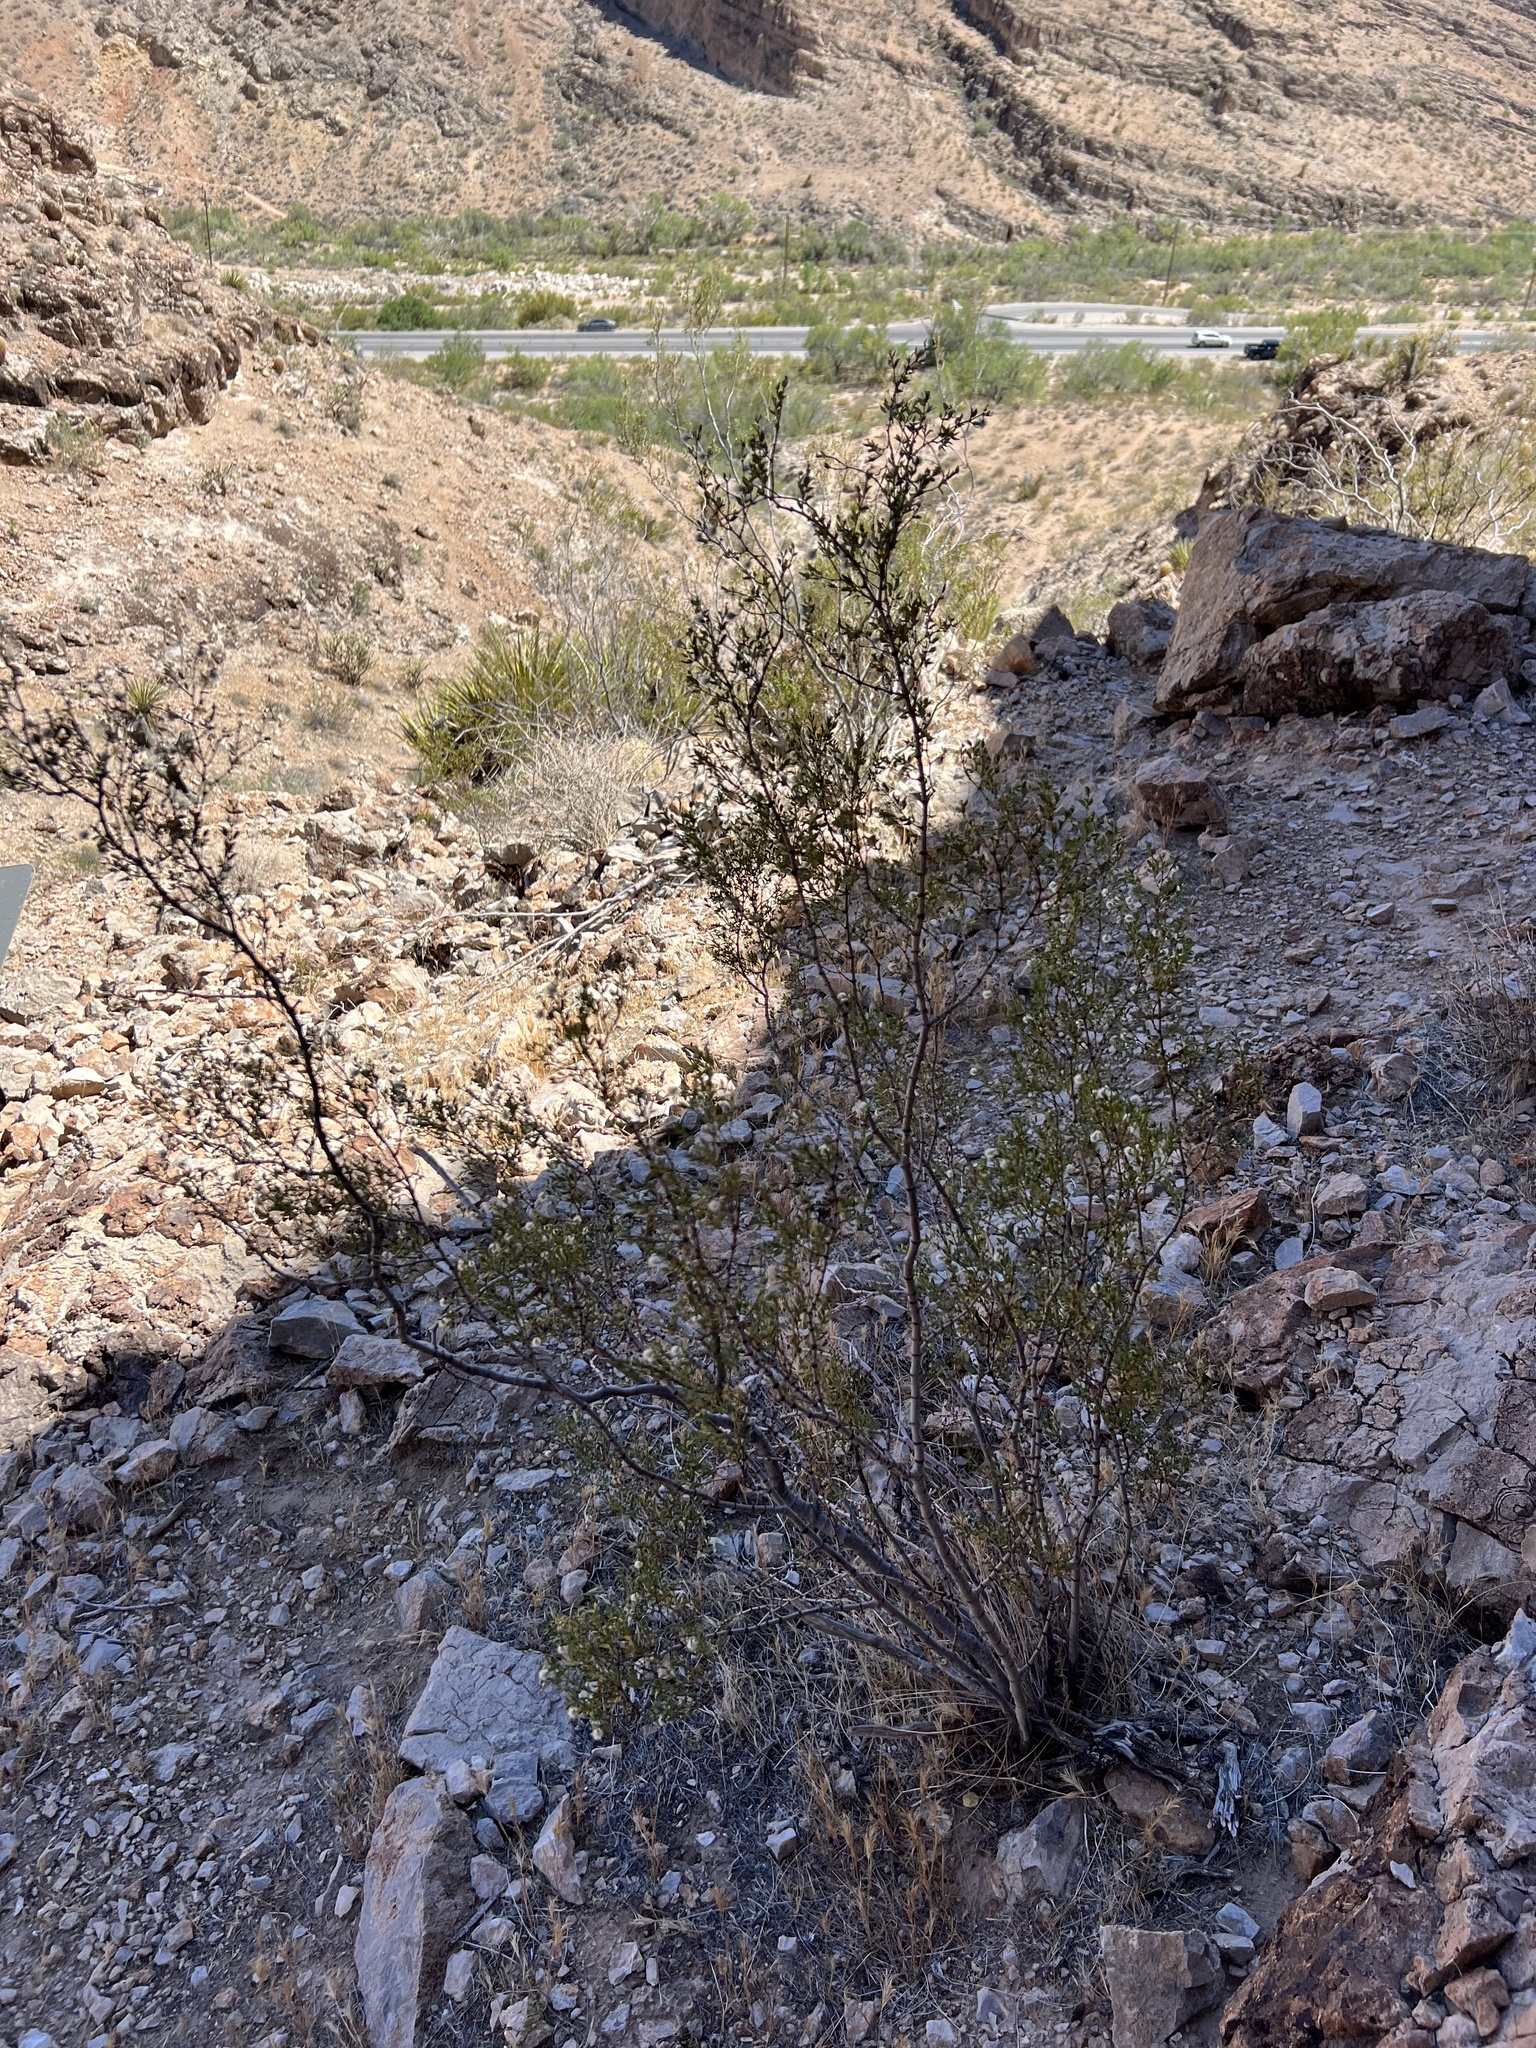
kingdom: Plantae
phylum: Tracheophyta
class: Magnoliopsida
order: Zygophyllales
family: Zygophyllaceae
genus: Larrea
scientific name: Larrea tridentata
